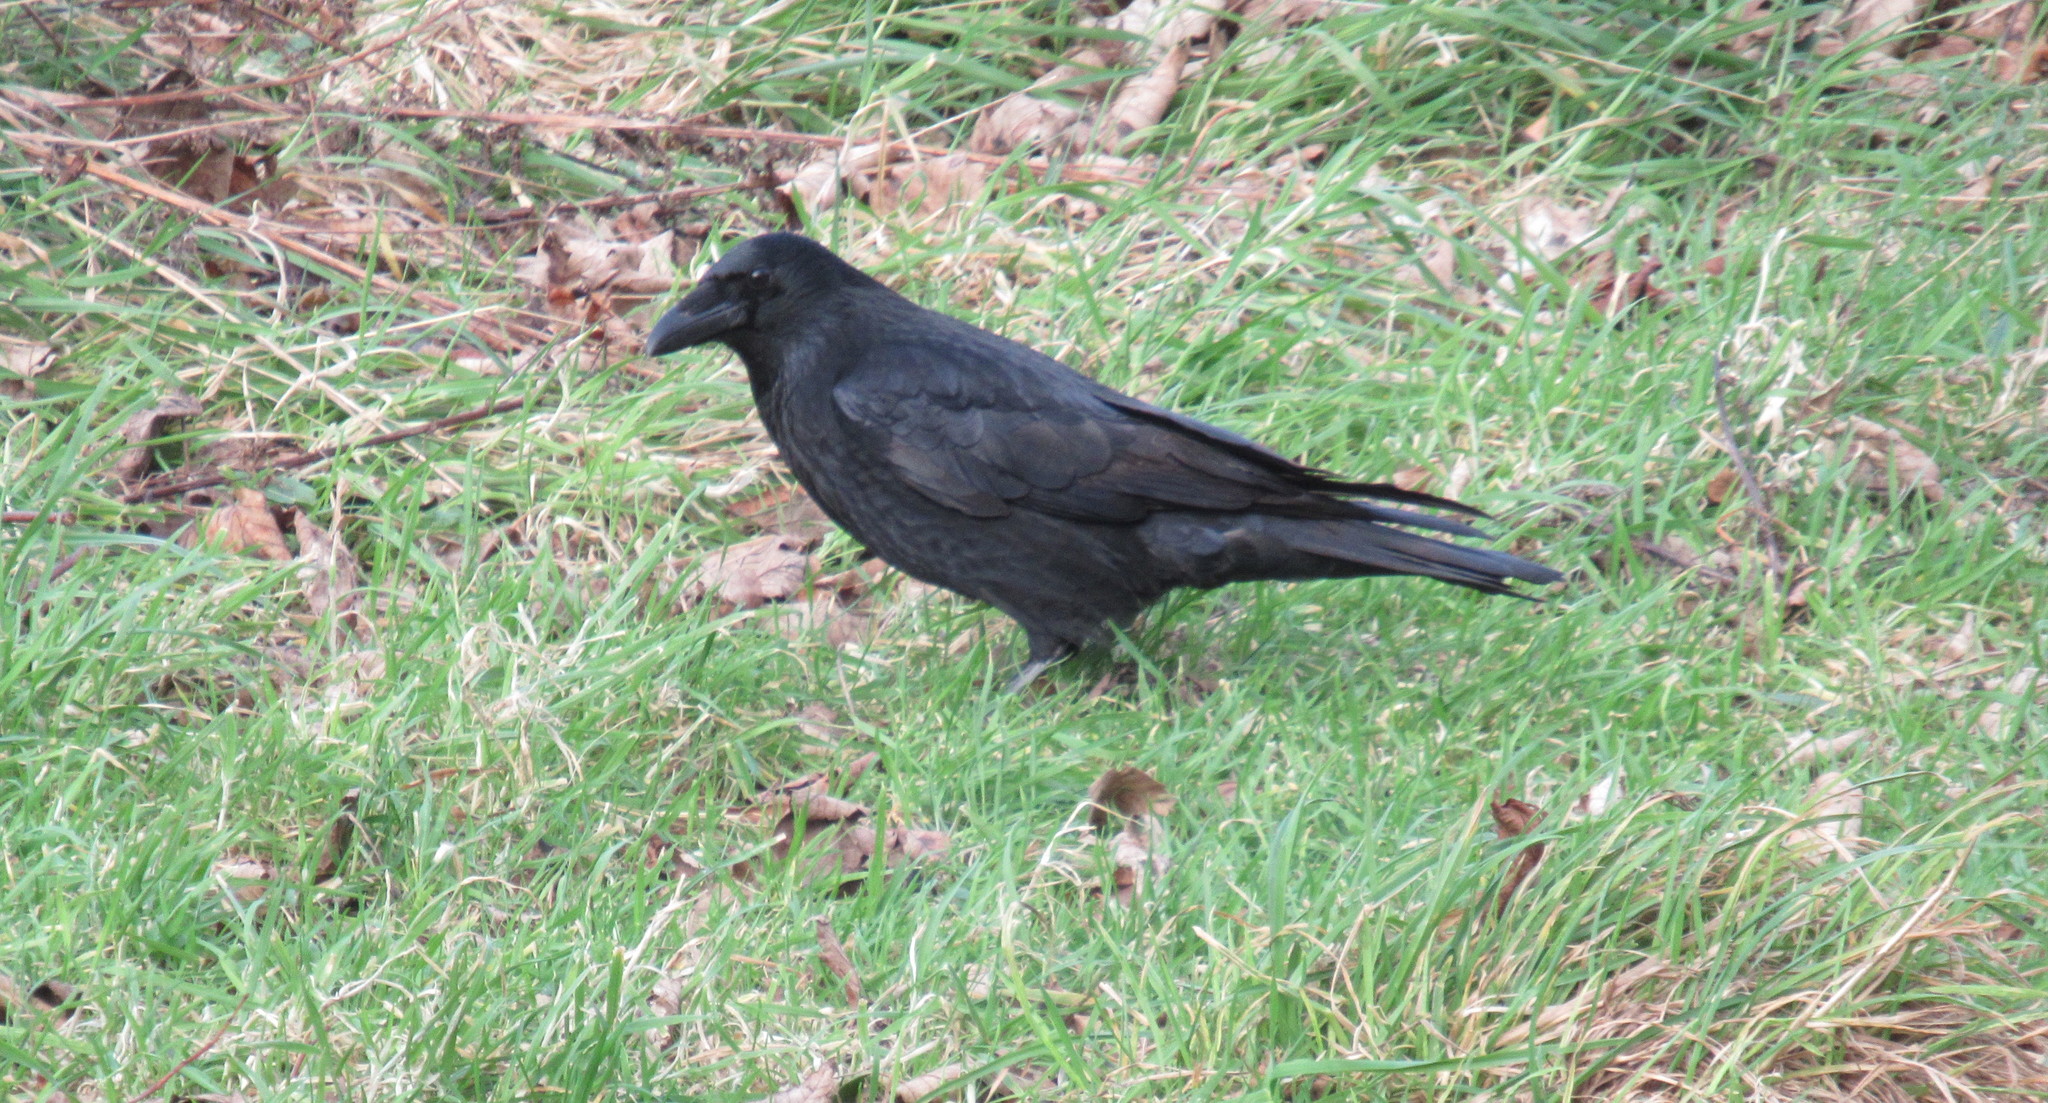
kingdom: Animalia
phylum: Chordata
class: Aves
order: Passeriformes
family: Corvidae
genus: Corvus
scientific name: Corvus corone
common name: Carrion crow
